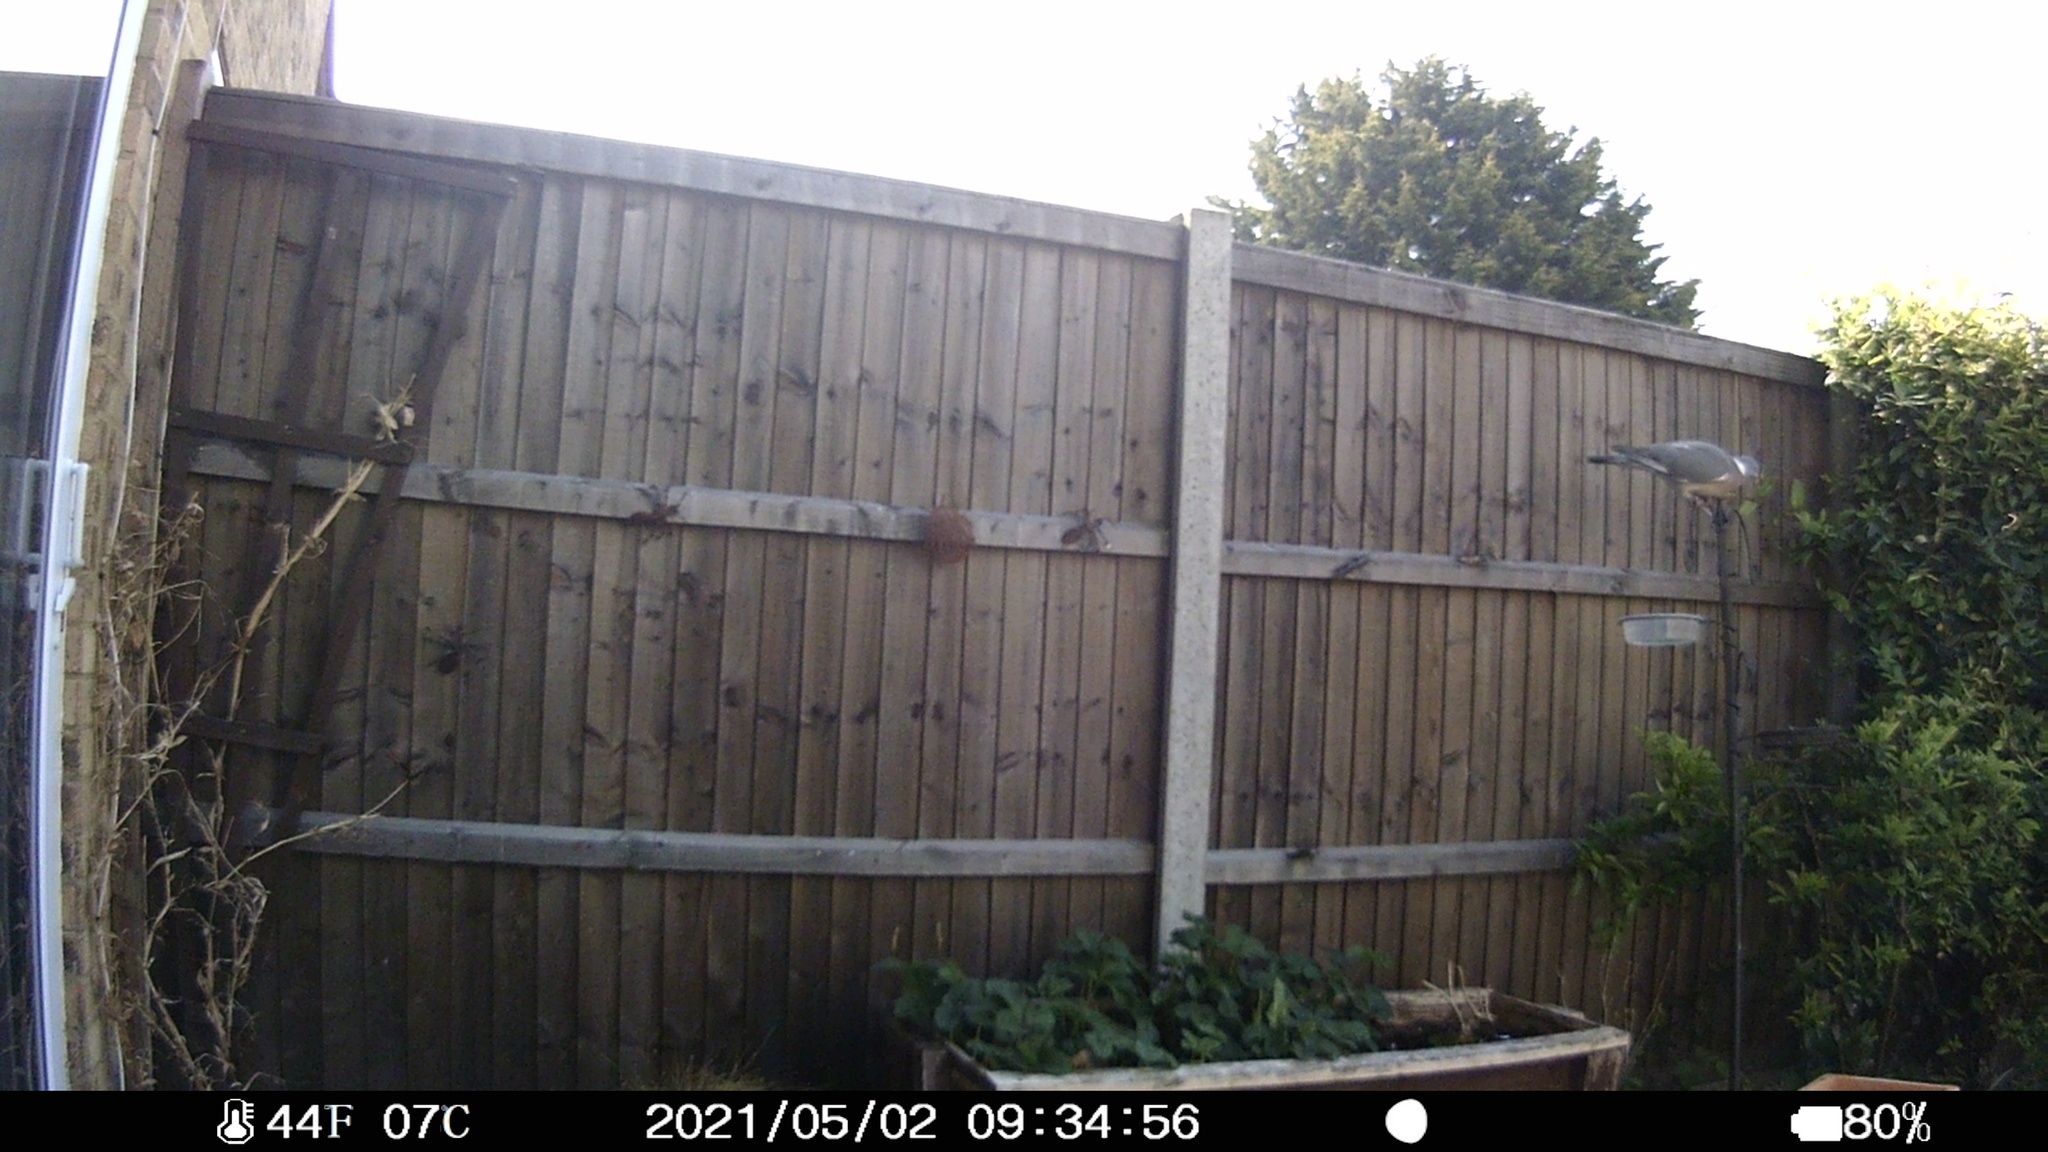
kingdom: Animalia
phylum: Chordata
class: Aves
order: Columbiformes
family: Columbidae
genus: Columba
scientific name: Columba palumbus
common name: Common wood pigeon
